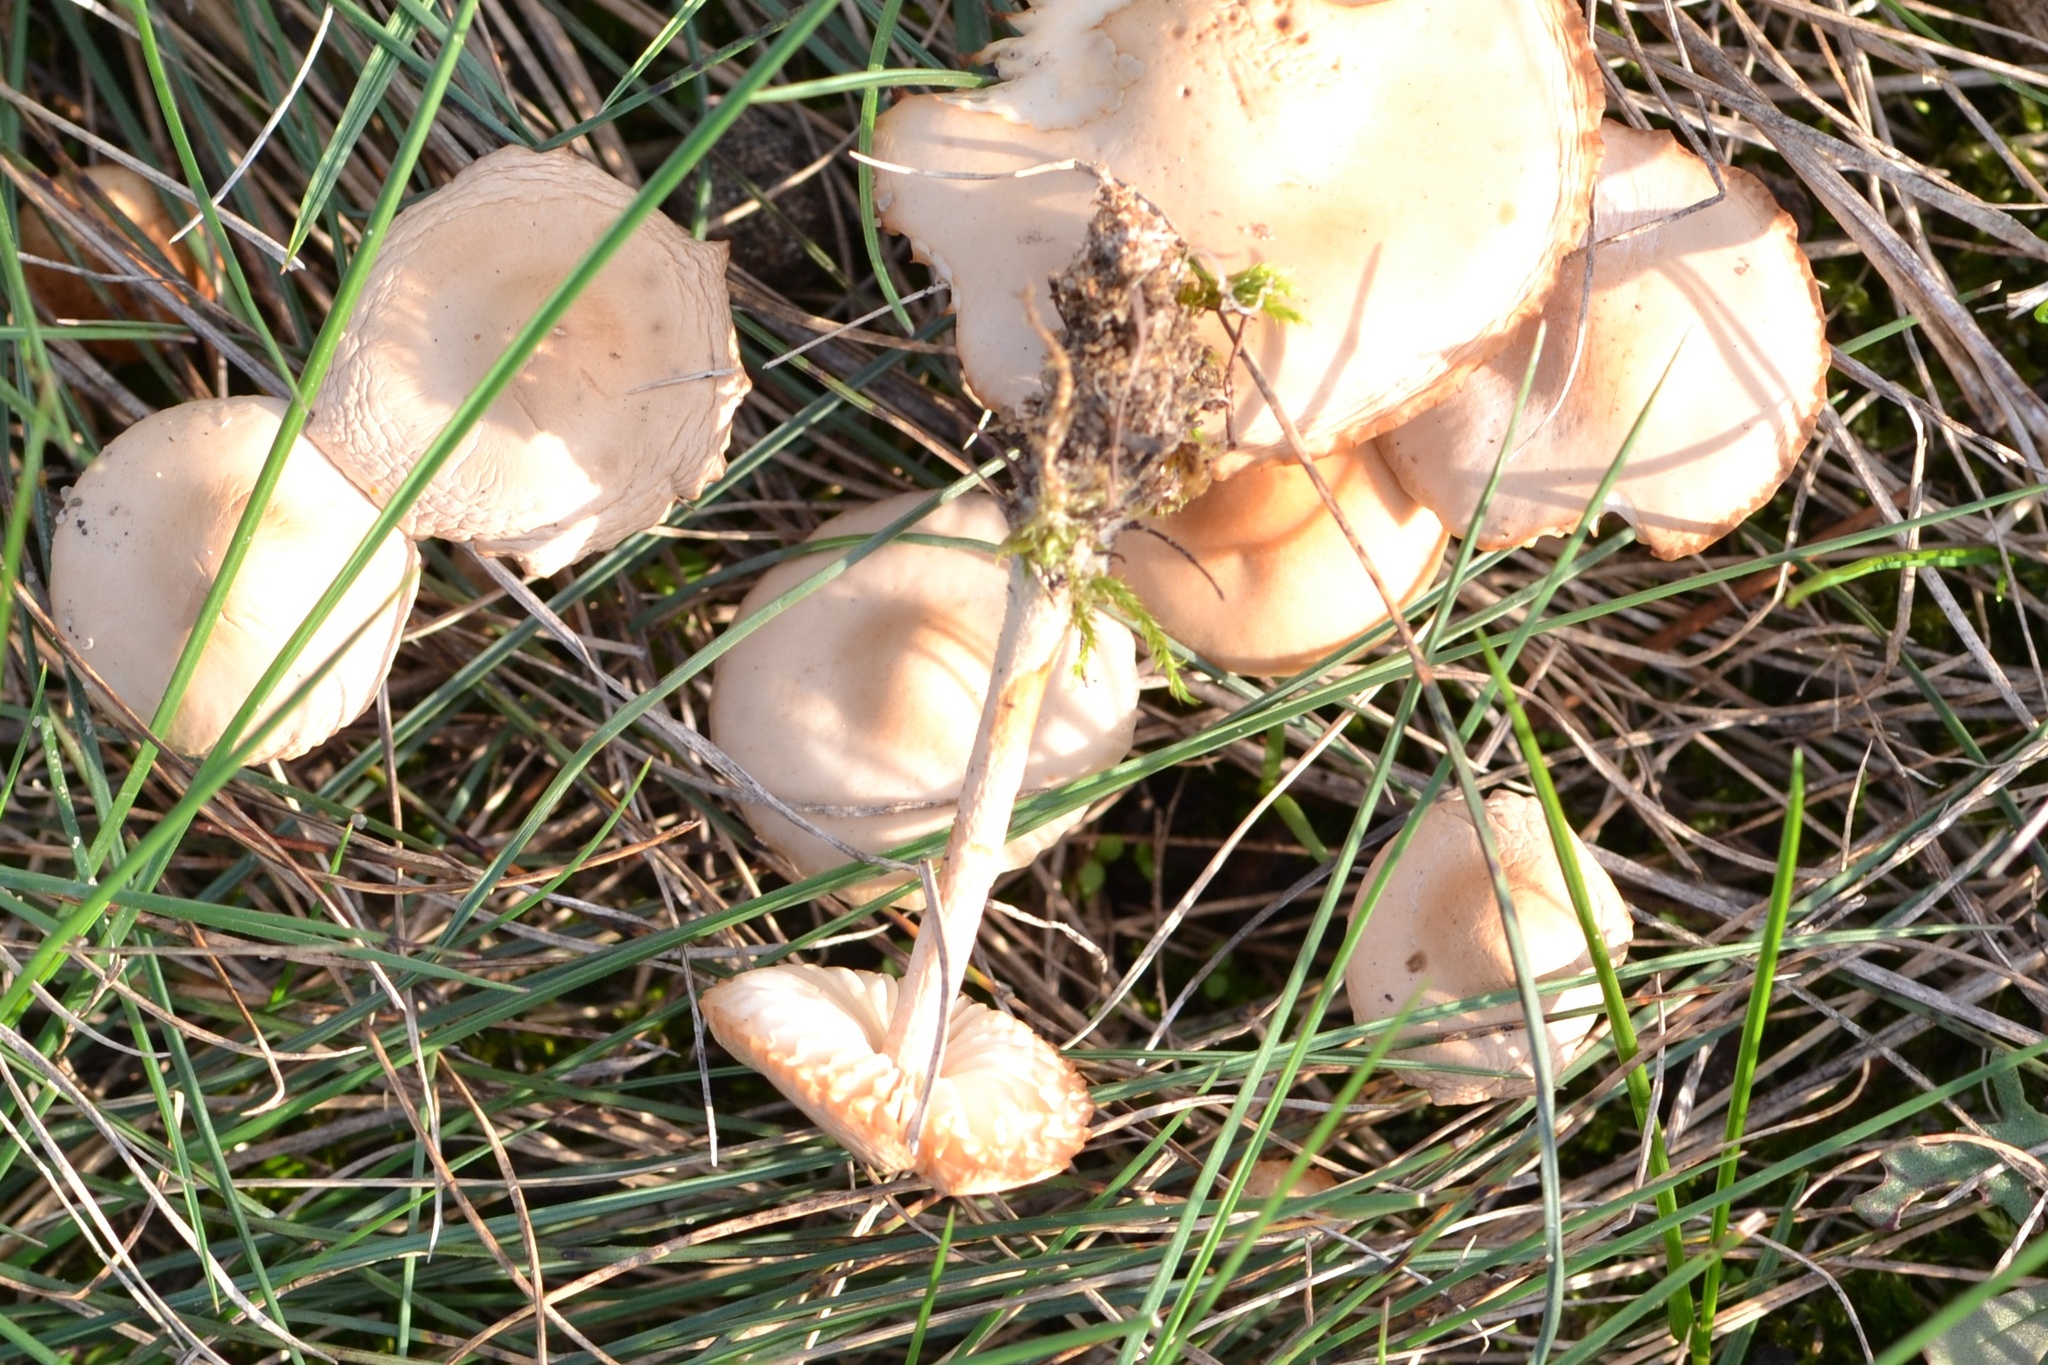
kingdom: Fungi
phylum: Basidiomycota
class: Agaricomycetes
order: Agaricales
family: Marasmiaceae
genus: Marasmius
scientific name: Marasmius oreades
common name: Fairy ring champignon
